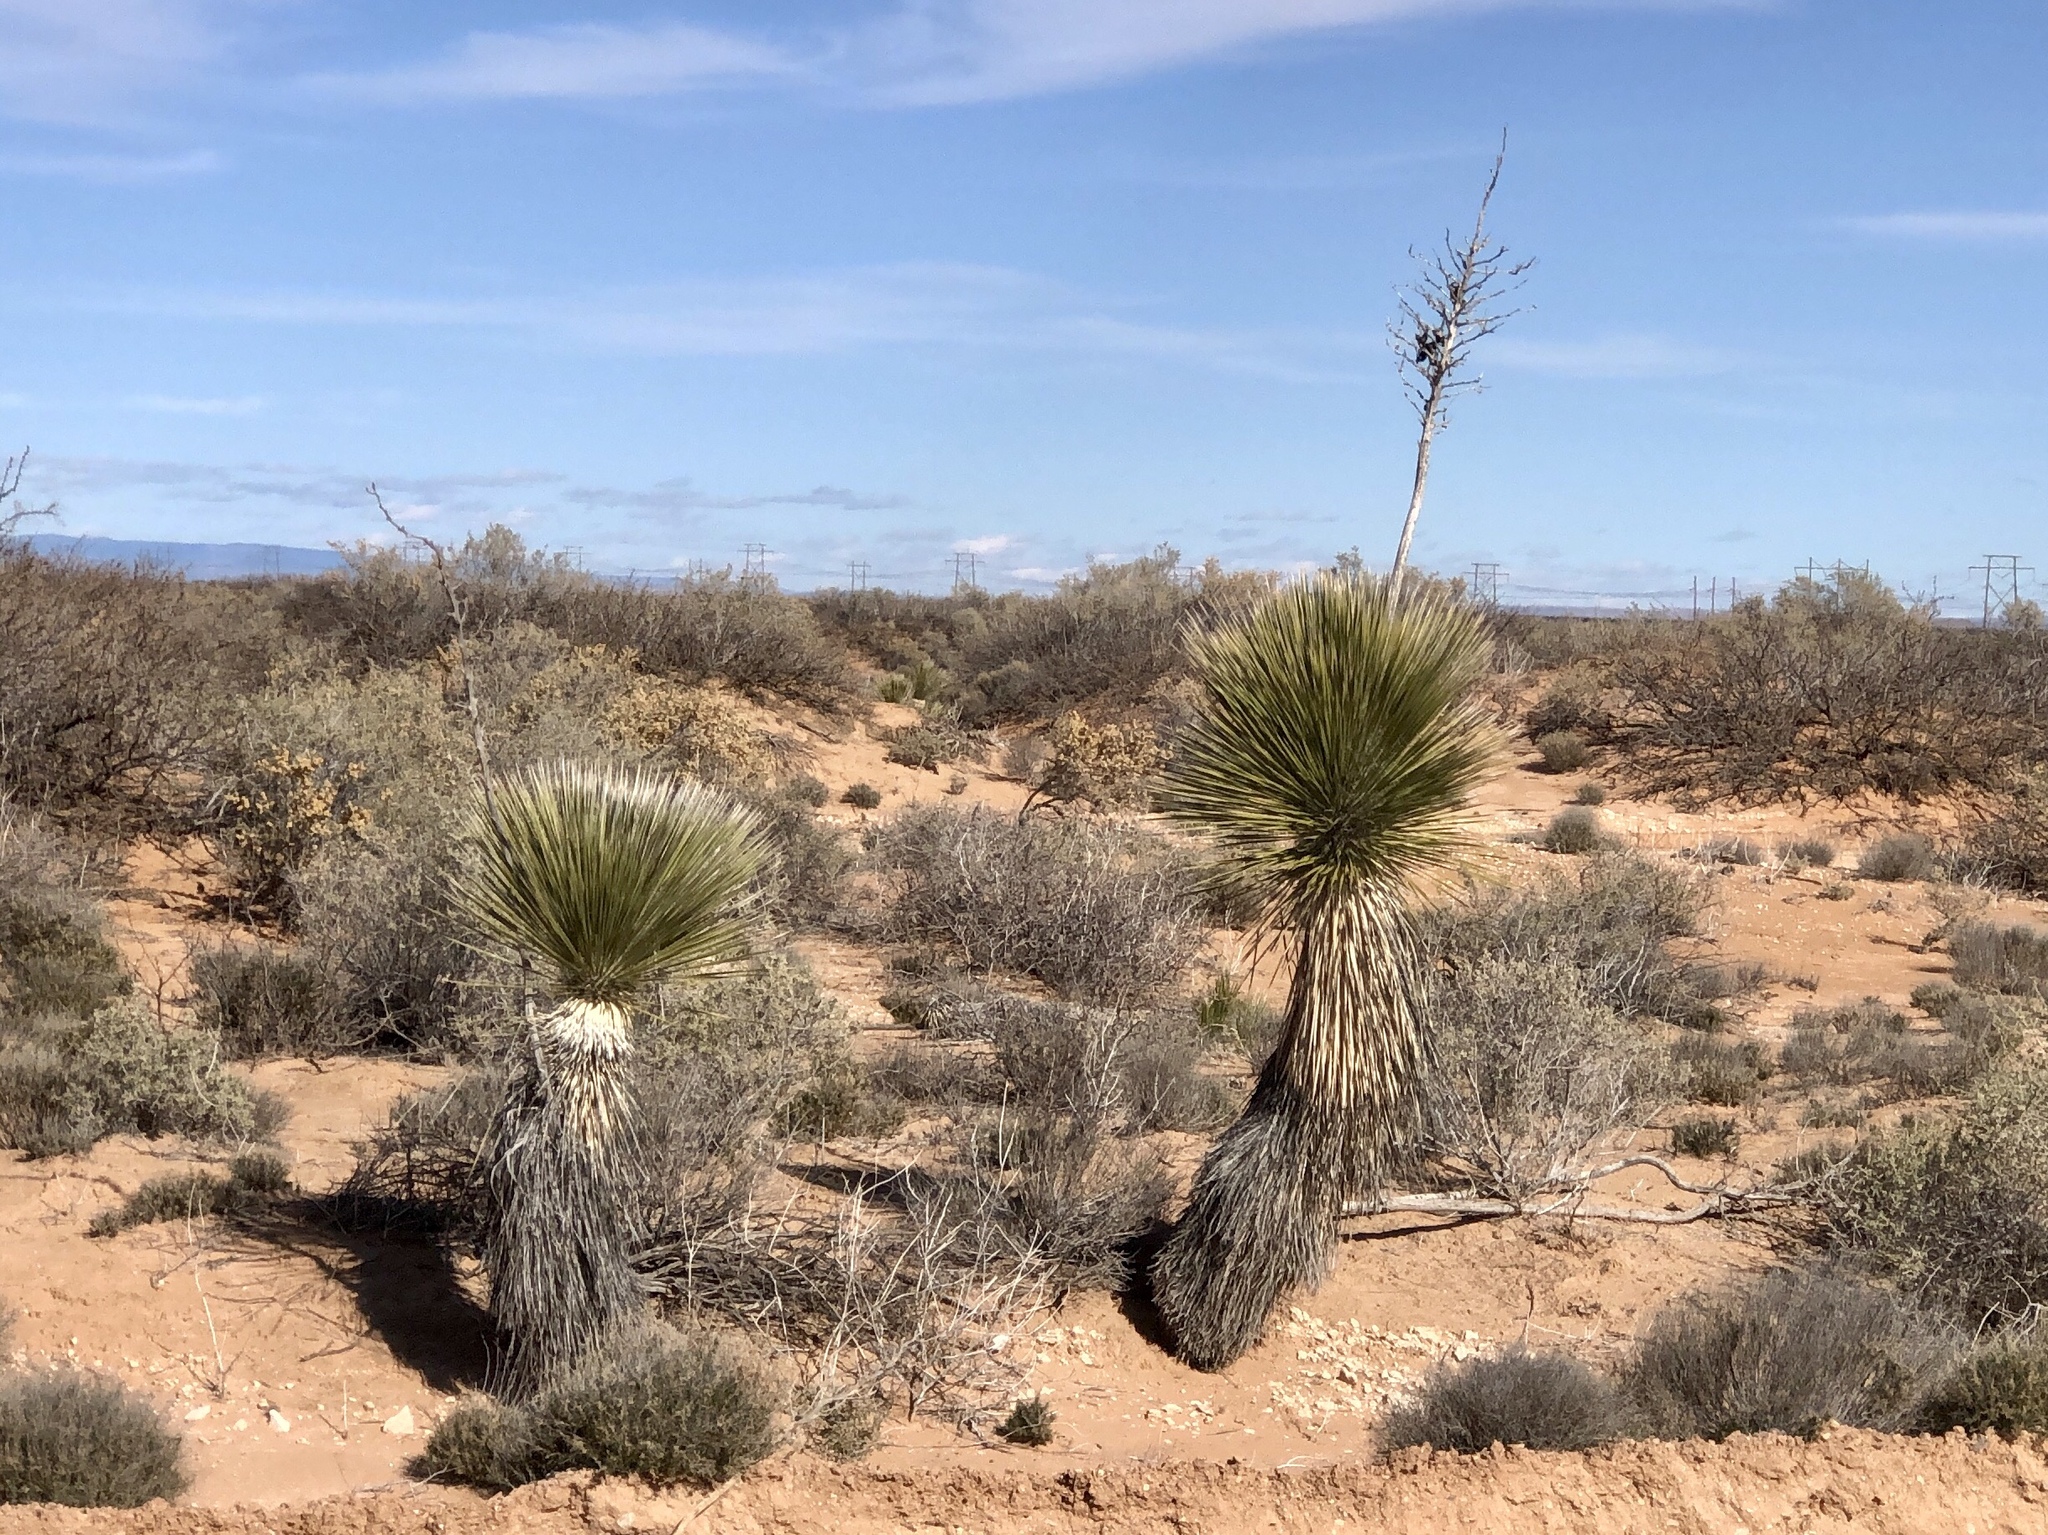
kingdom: Plantae
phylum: Tracheophyta
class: Liliopsida
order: Asparagales
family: Asparagaceae
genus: Yucca
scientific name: Yucca elata
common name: Palmella
